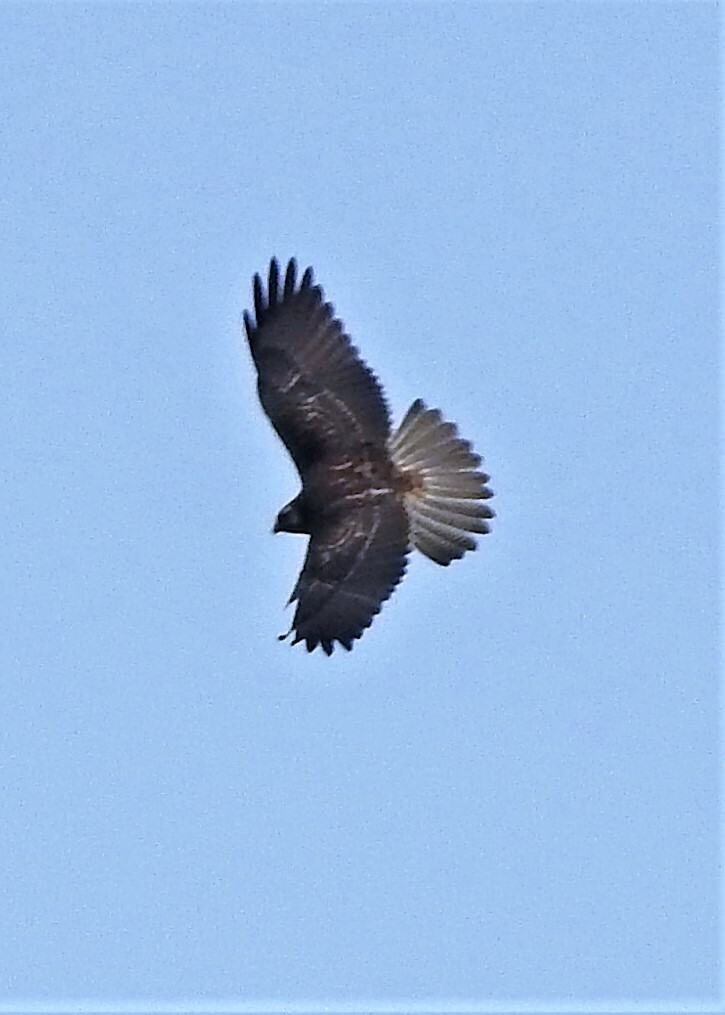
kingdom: Animalia
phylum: Chordata
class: Aves
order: Accipitriformes
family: Accipitridae
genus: Geranoaetus
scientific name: Geranoaetus melanoleucus
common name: Black-chested buzzard-eagle
